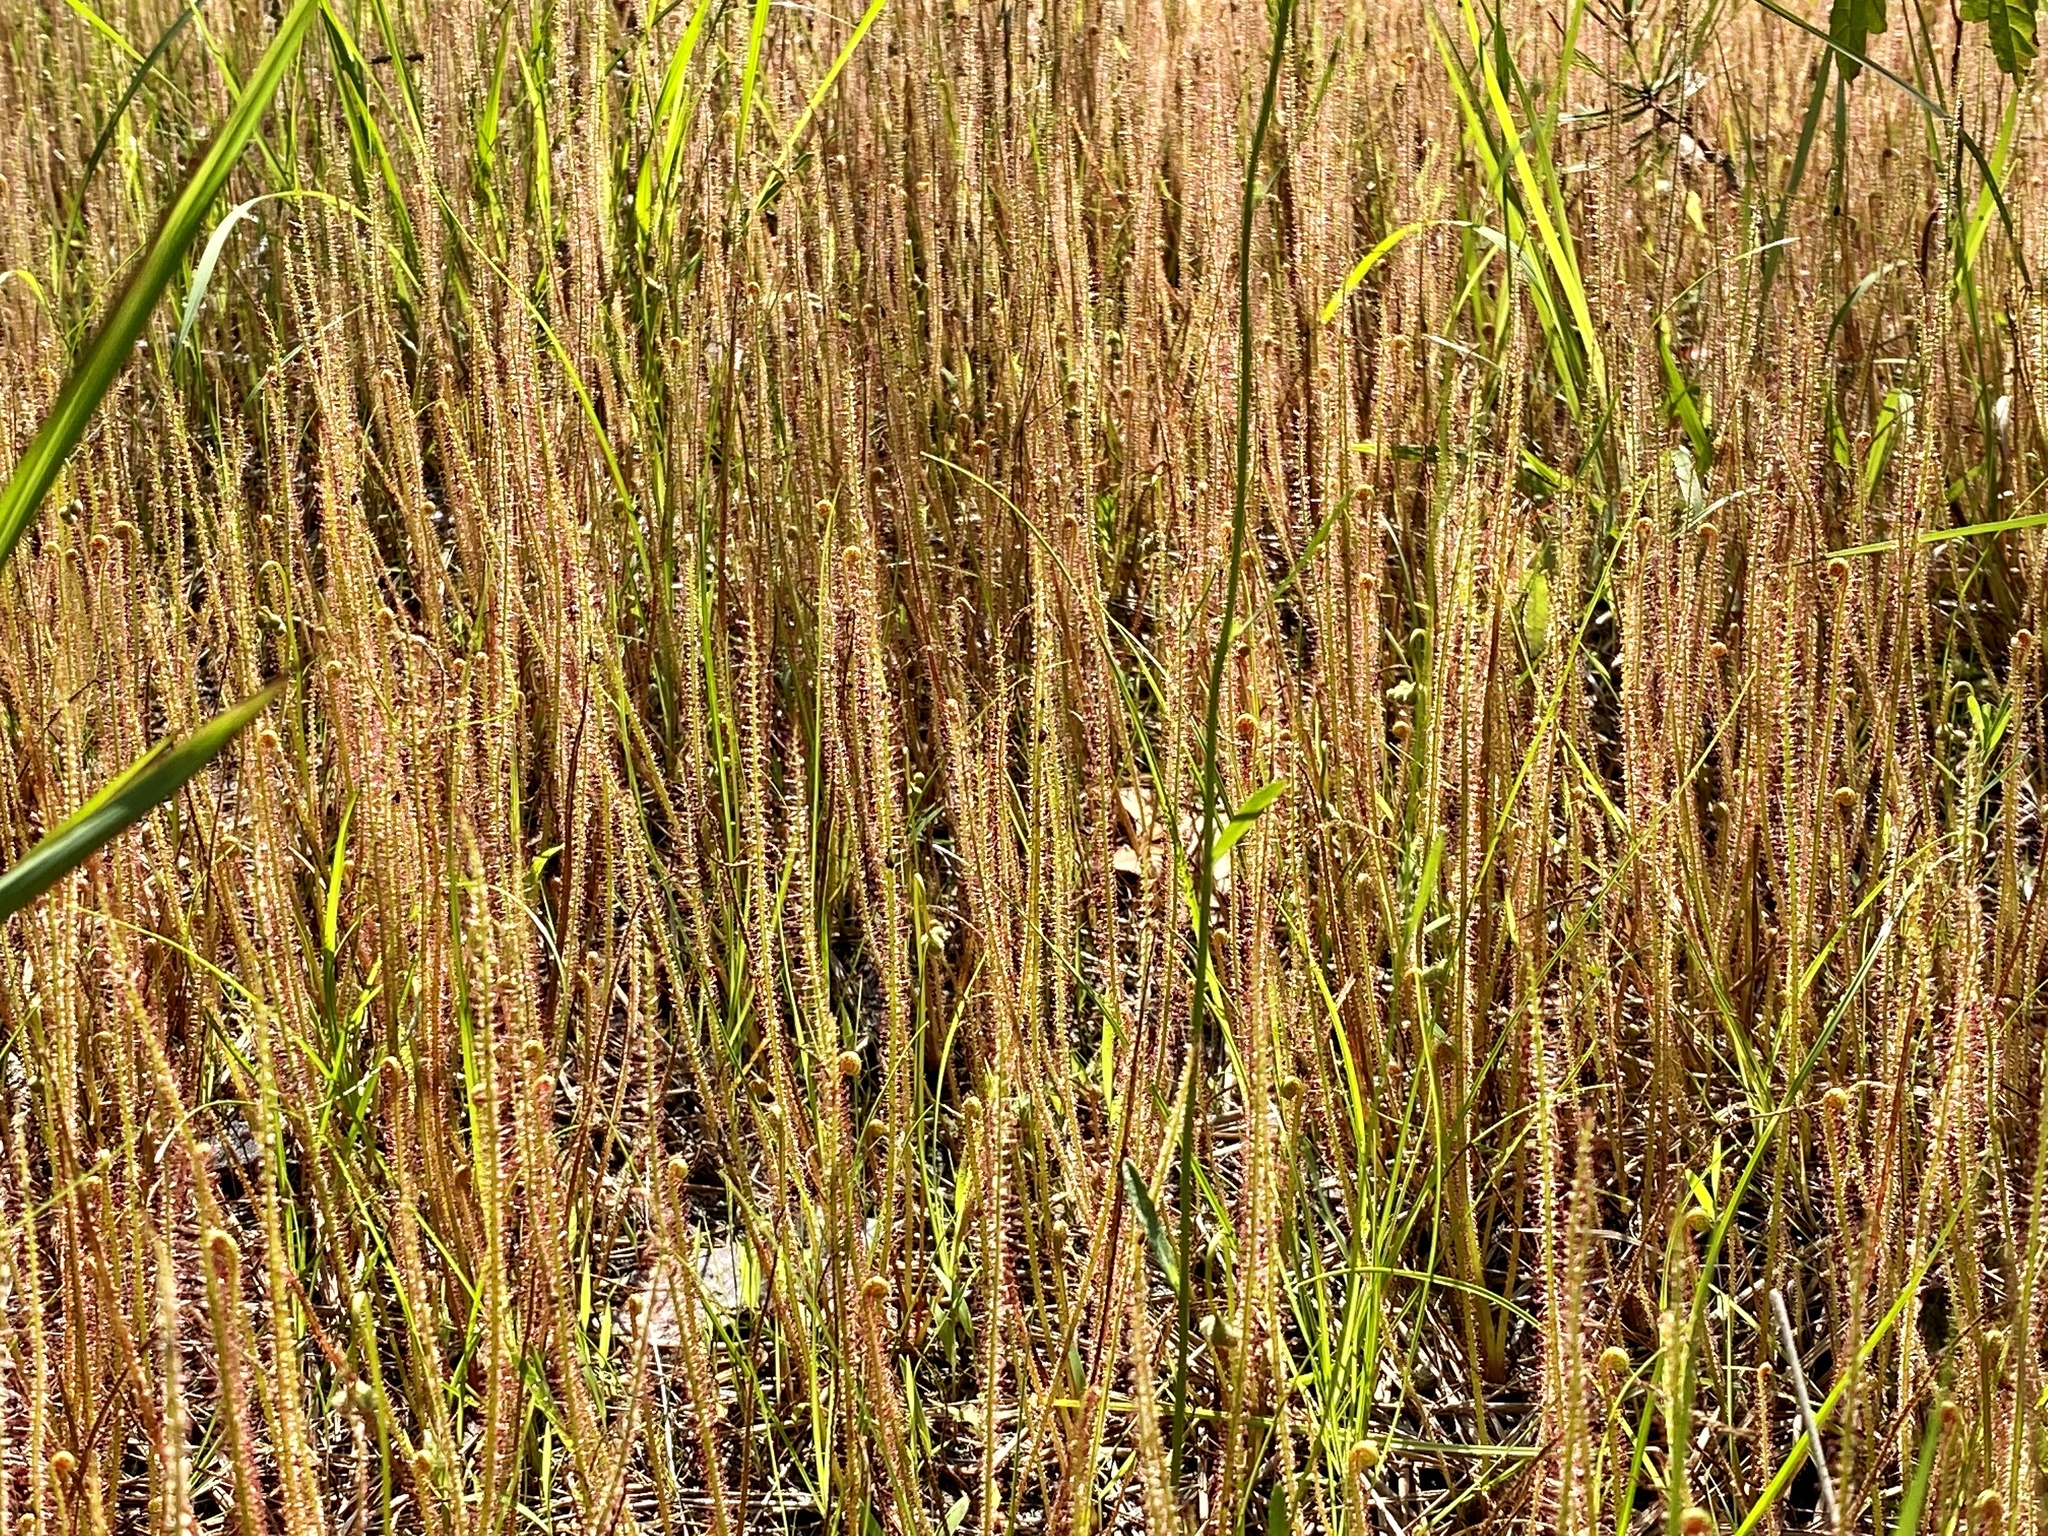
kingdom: Plantae
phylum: Tracheophyta
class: Magnoliopsida
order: Caryophyllales
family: Droseraceae
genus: Drosera
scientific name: Drosera filiformis
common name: Dew-thread
